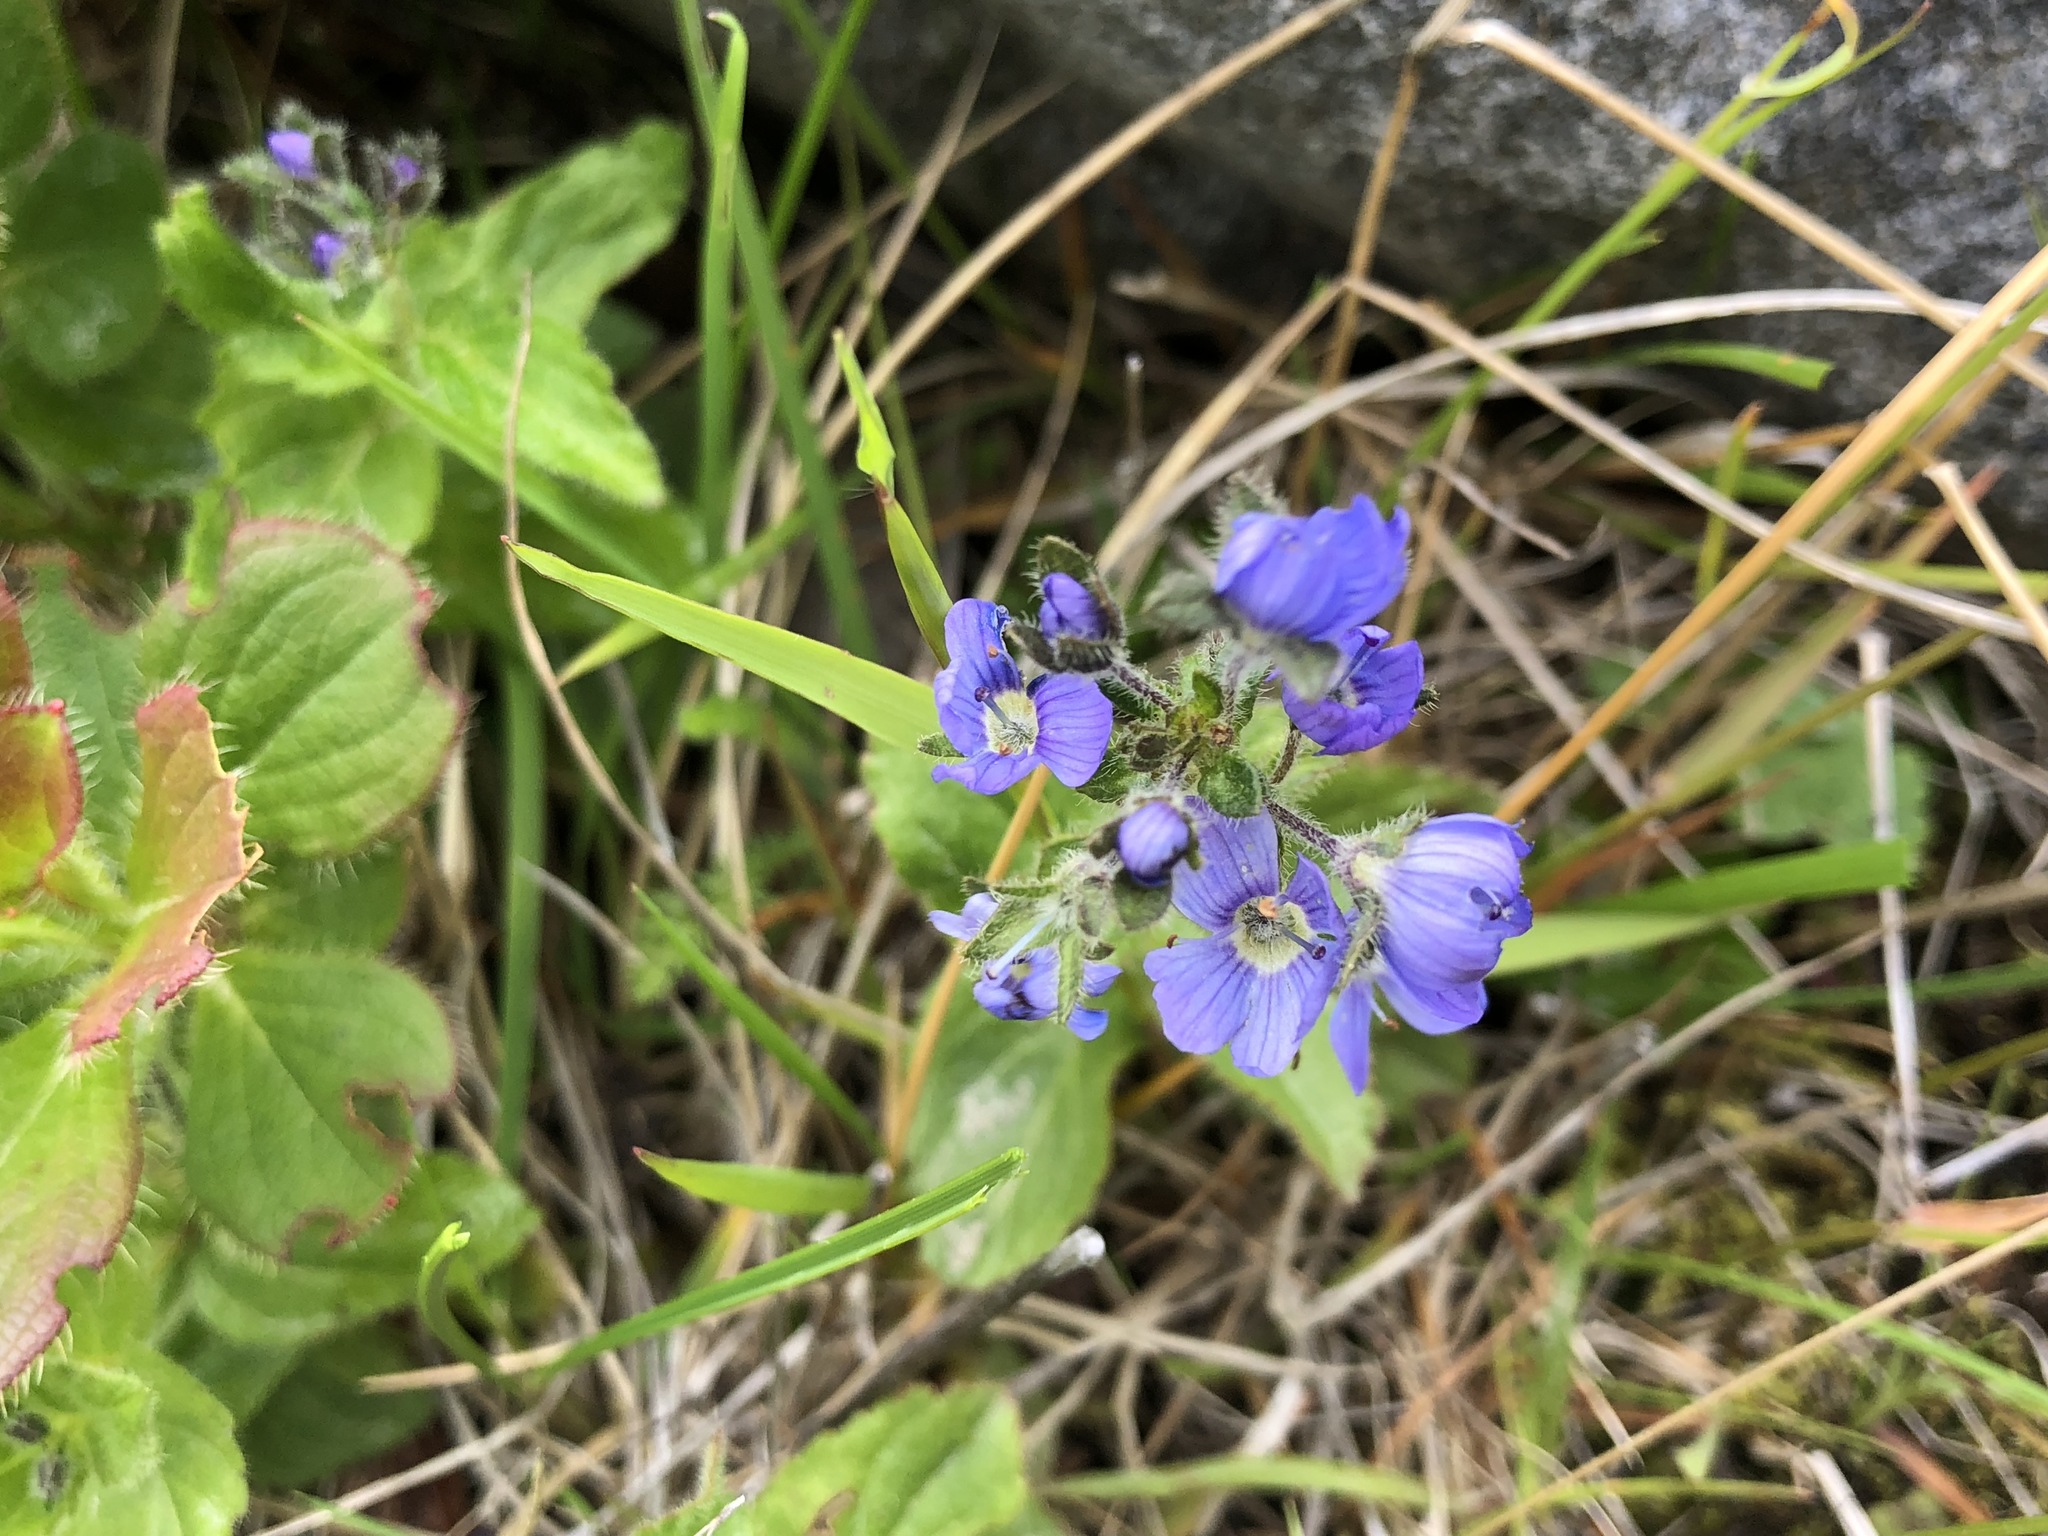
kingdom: Plantae
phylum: Tracheophyta
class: Magnoliopsida
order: Lamiales
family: Plantaginaceae
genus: Veronica
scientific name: Veronica stelleri
